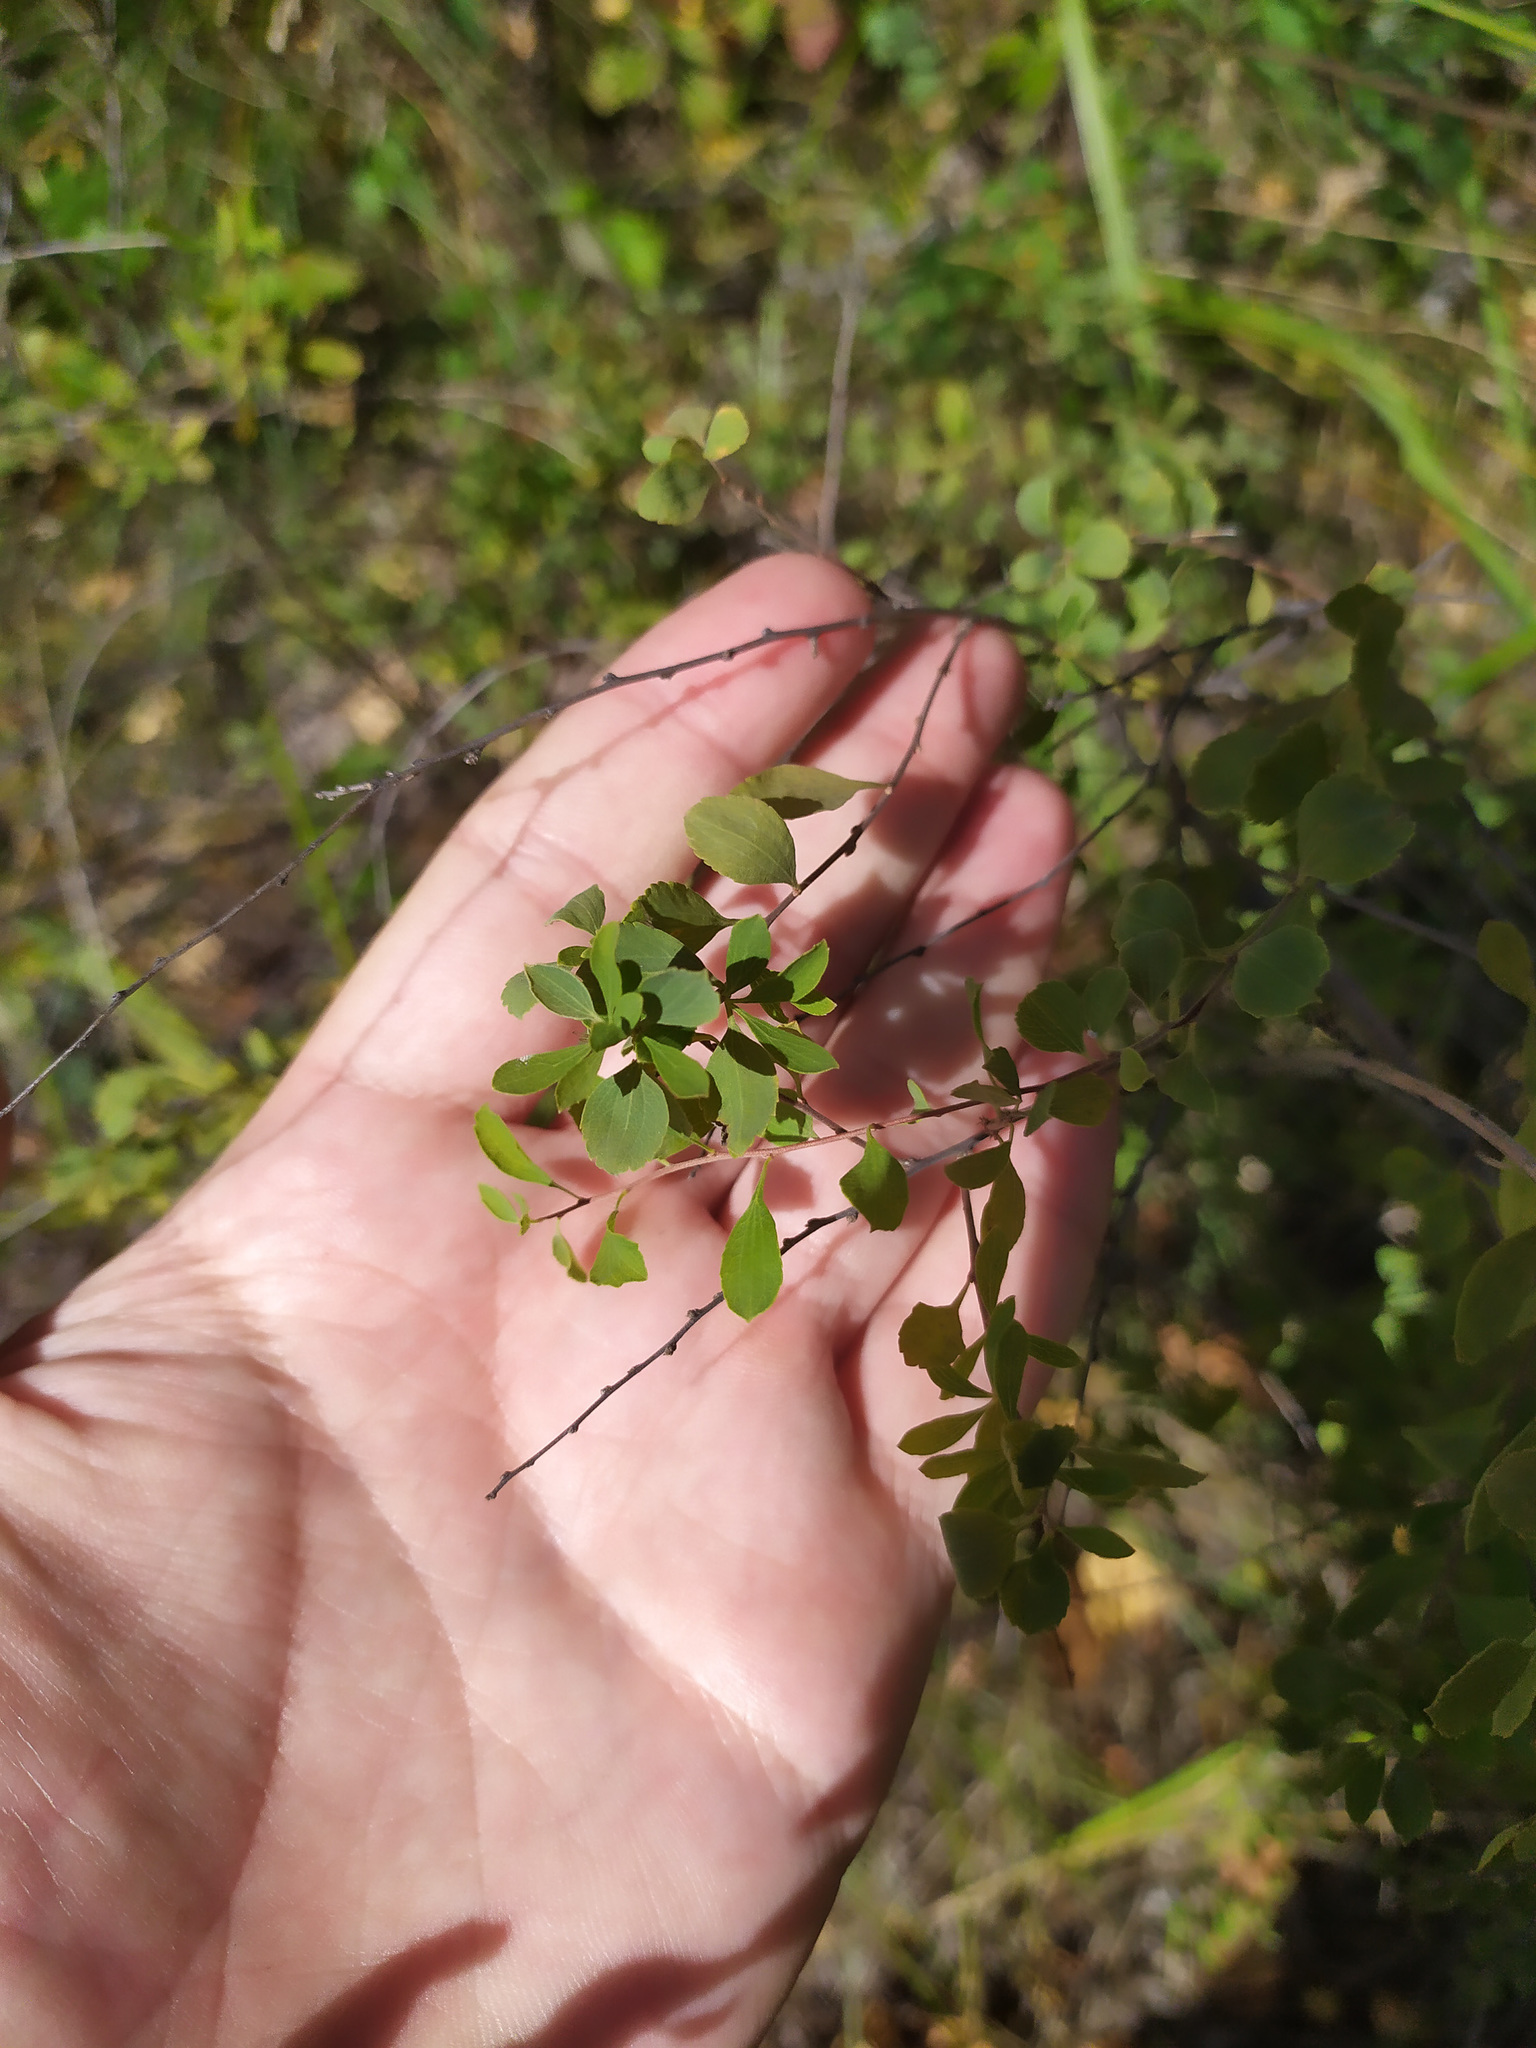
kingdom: Plantae
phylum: Tracheophyta
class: Magnoliopsida
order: Rosales
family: Rosaceae
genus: Spiraea
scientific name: Spiraea crenata
